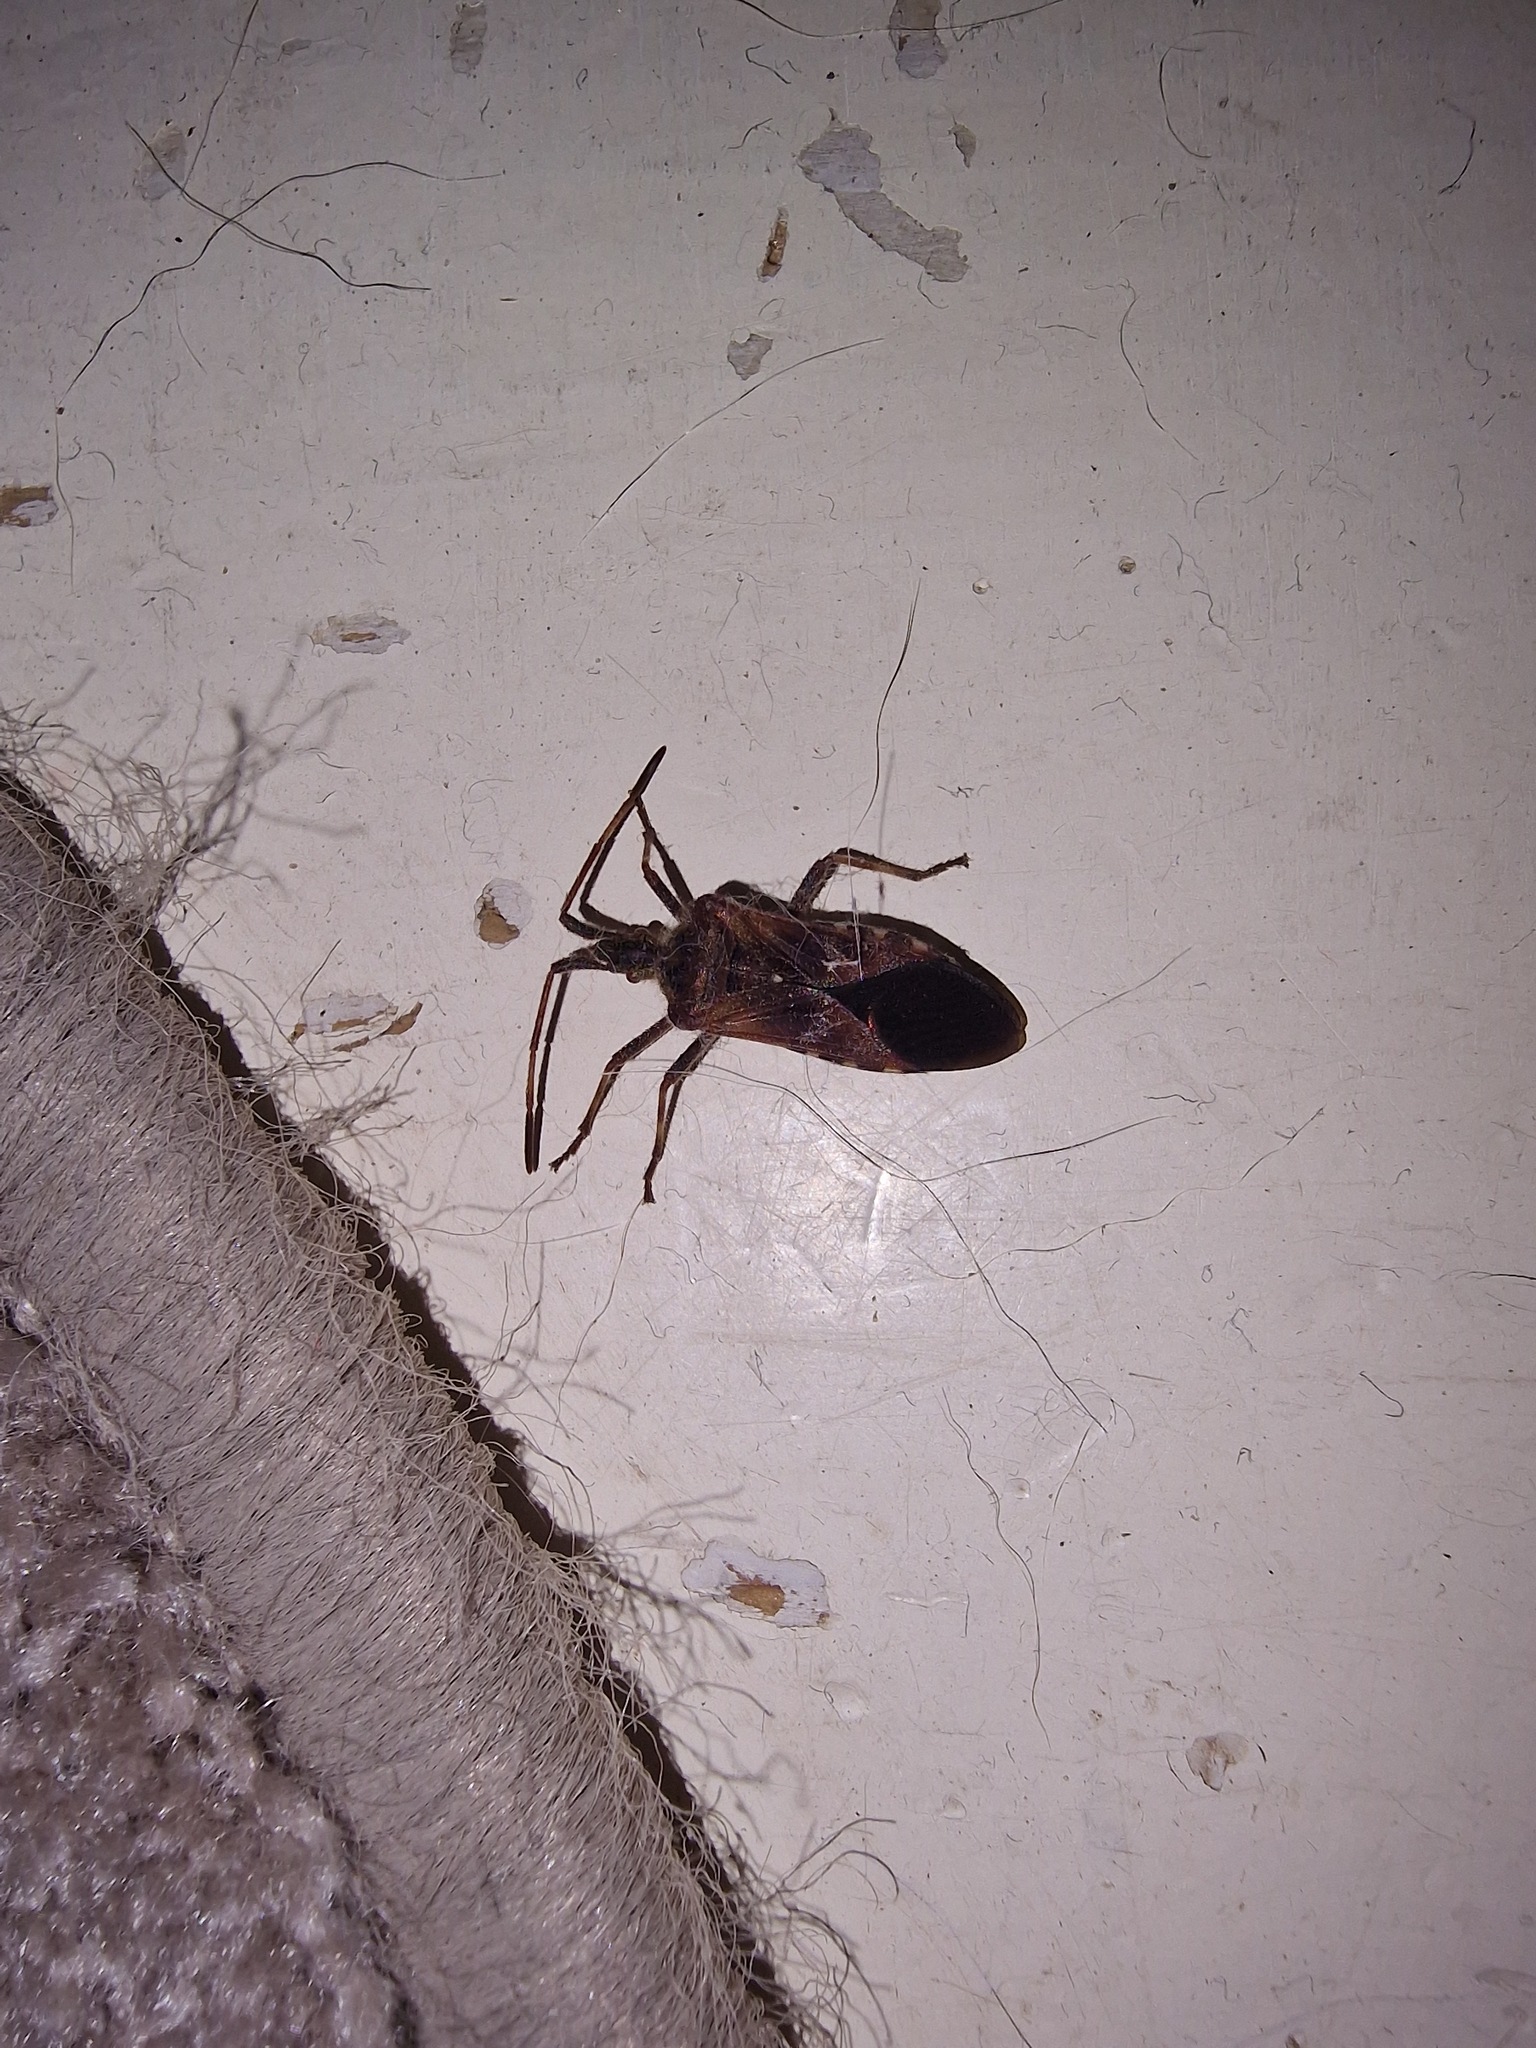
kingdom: Animalia
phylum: Arthropoda
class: Insecta
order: Hemiptera
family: Coreidae
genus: Leptoglossus
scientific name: Leptoglossus occidentalis
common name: Western conifer-seed bug
